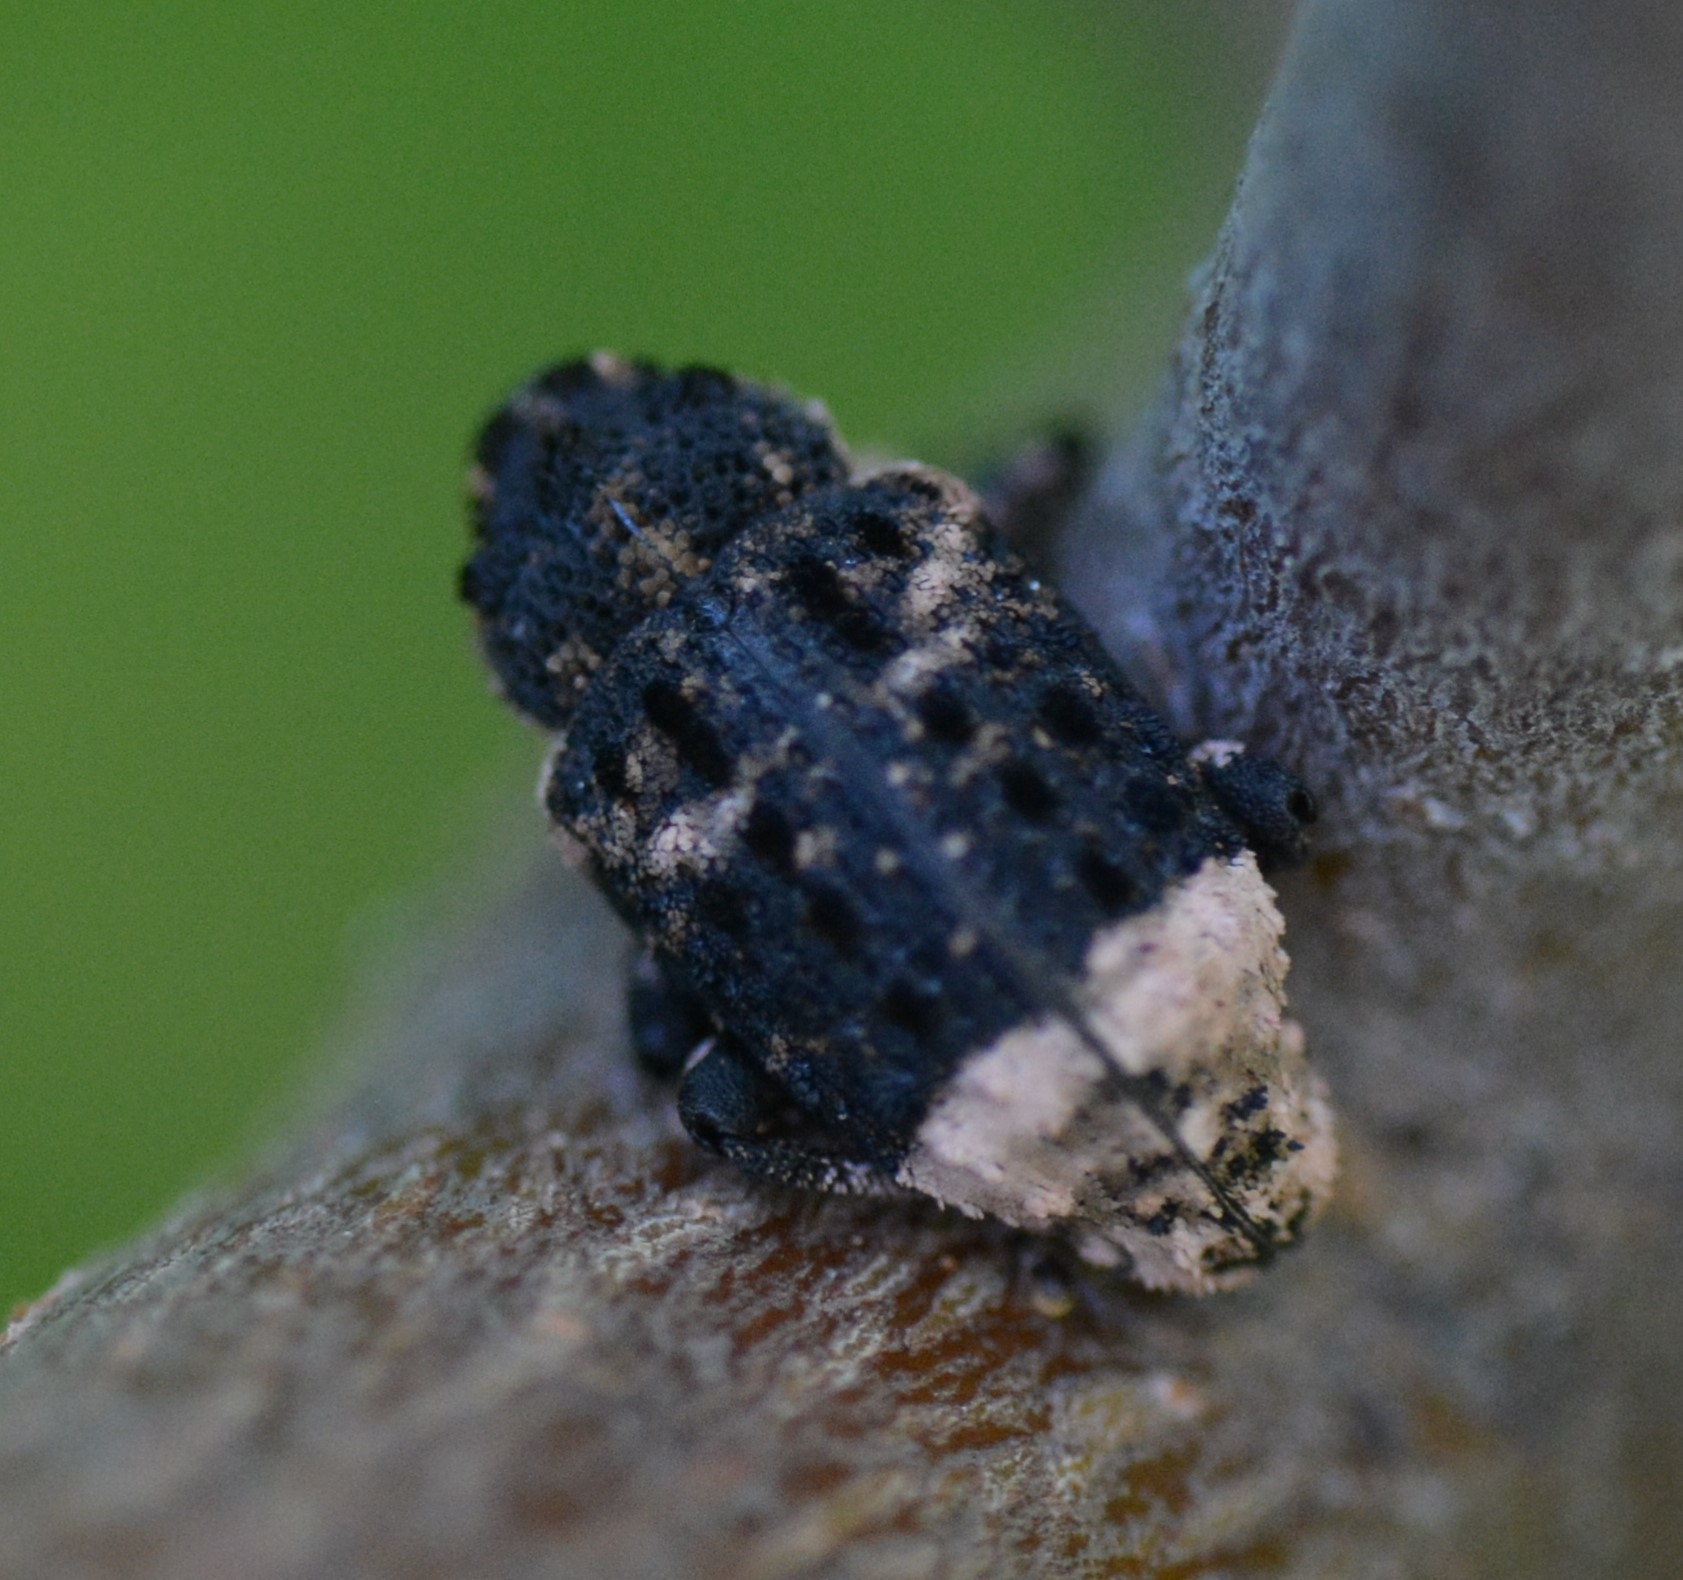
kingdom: Animalia
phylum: Arthropoda
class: Insecta
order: Coleoptera
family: Curculionidae
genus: Cryptorhynchus
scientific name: Cryptorhynchus lapathi
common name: Weevil
